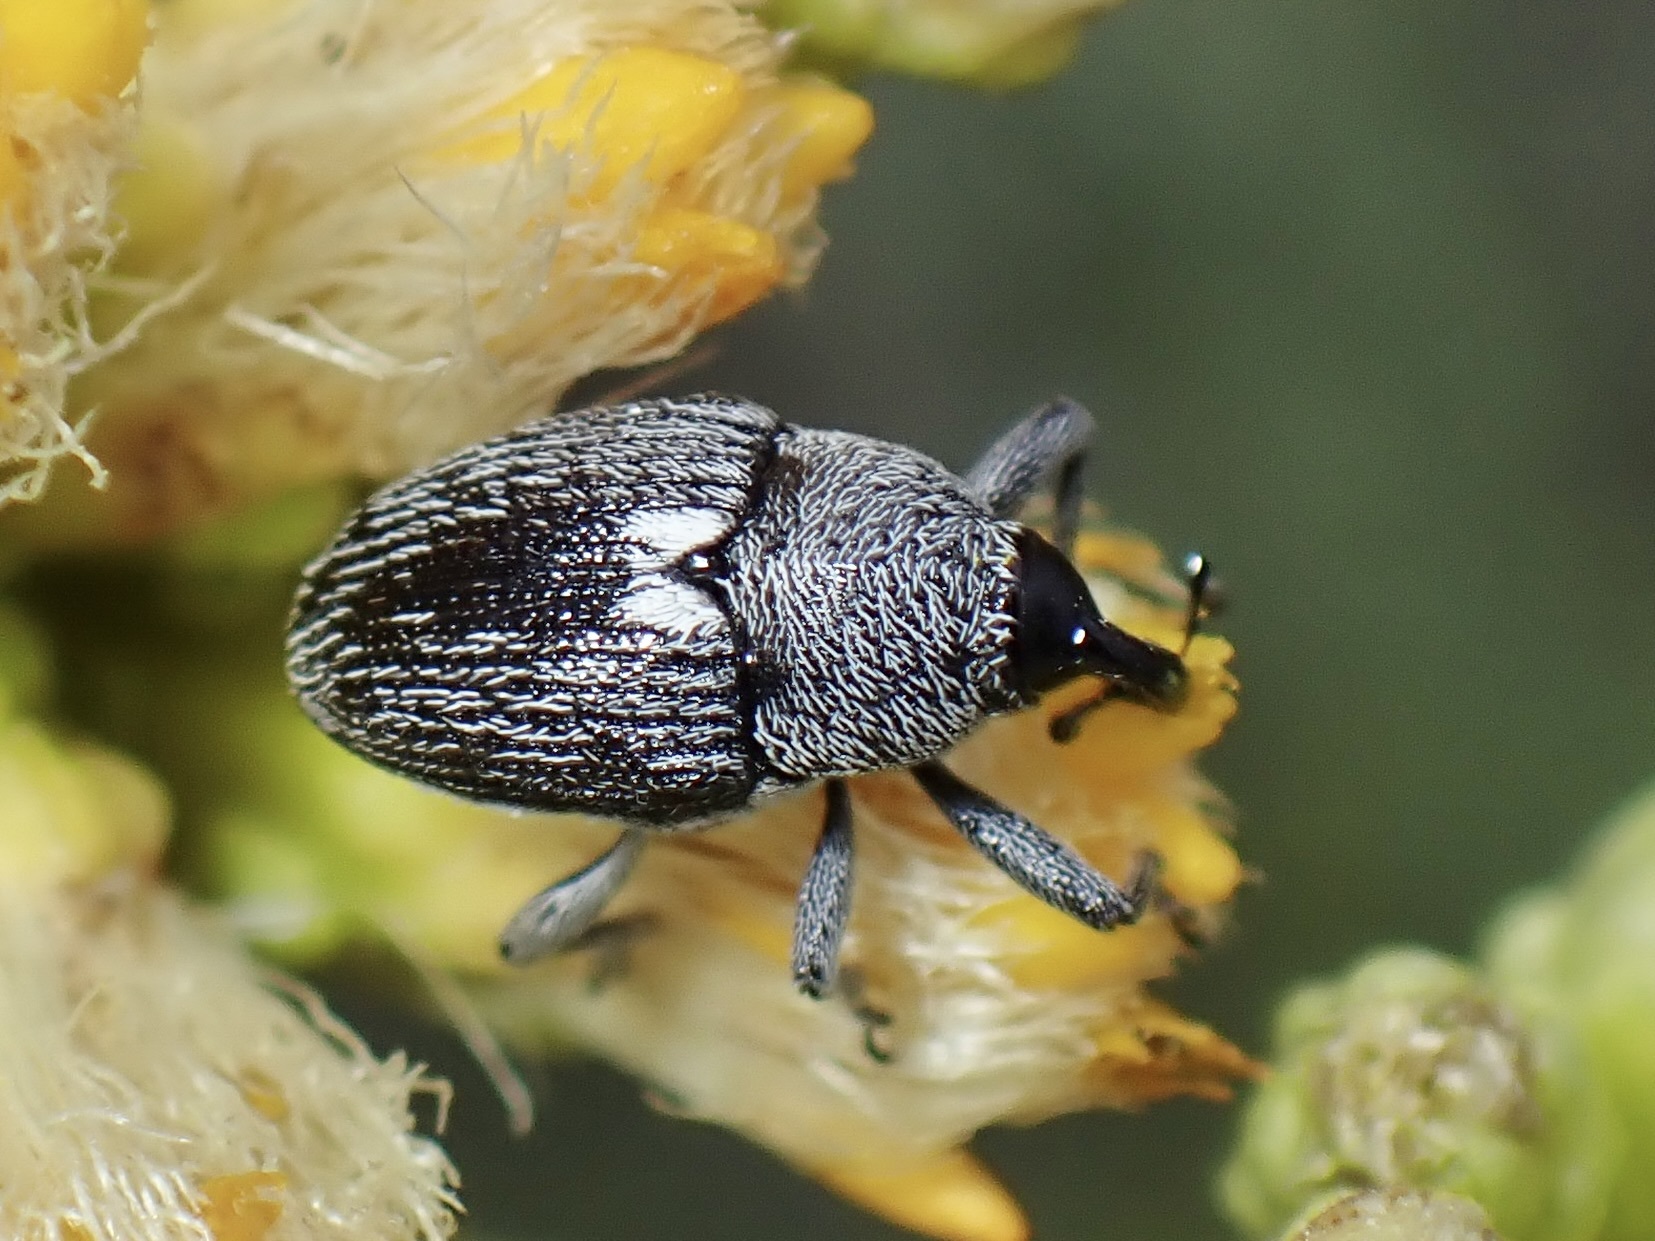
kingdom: Animalia
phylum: Arthropoda
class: Insecta
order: Coleoptera
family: Curculionidae
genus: Geraeus
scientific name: Geraeus
